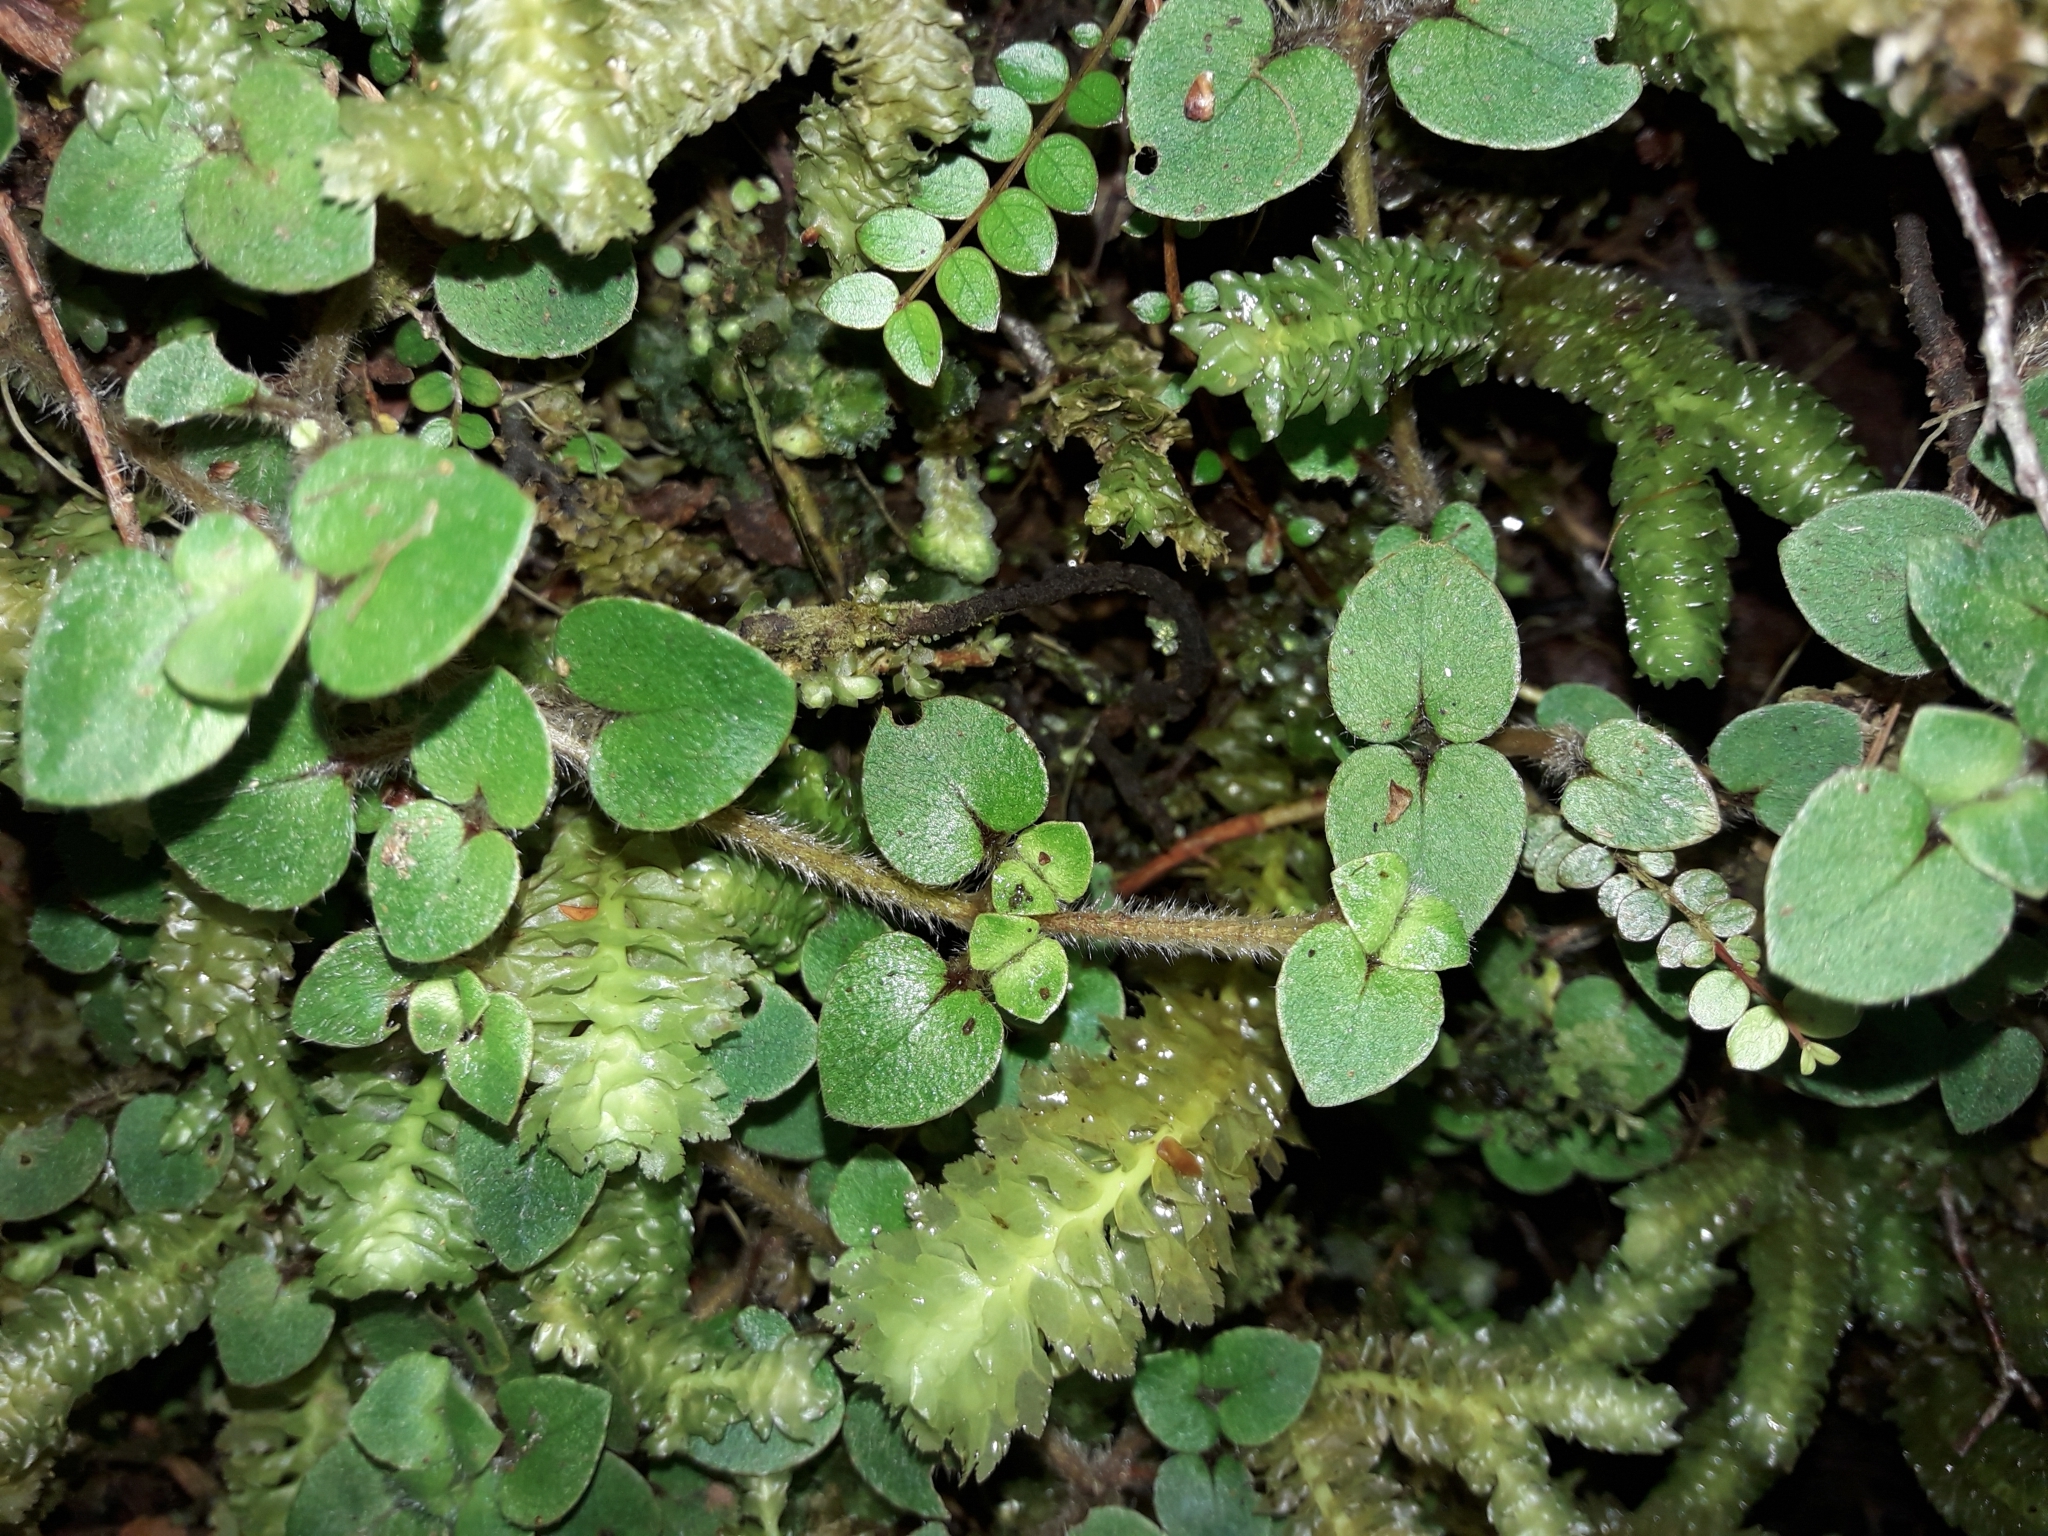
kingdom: Plantae
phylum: Tracheophyta
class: Magnoliopsida
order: Gentianales
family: Rubiaceae
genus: Nertera
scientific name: Nertera villosa
